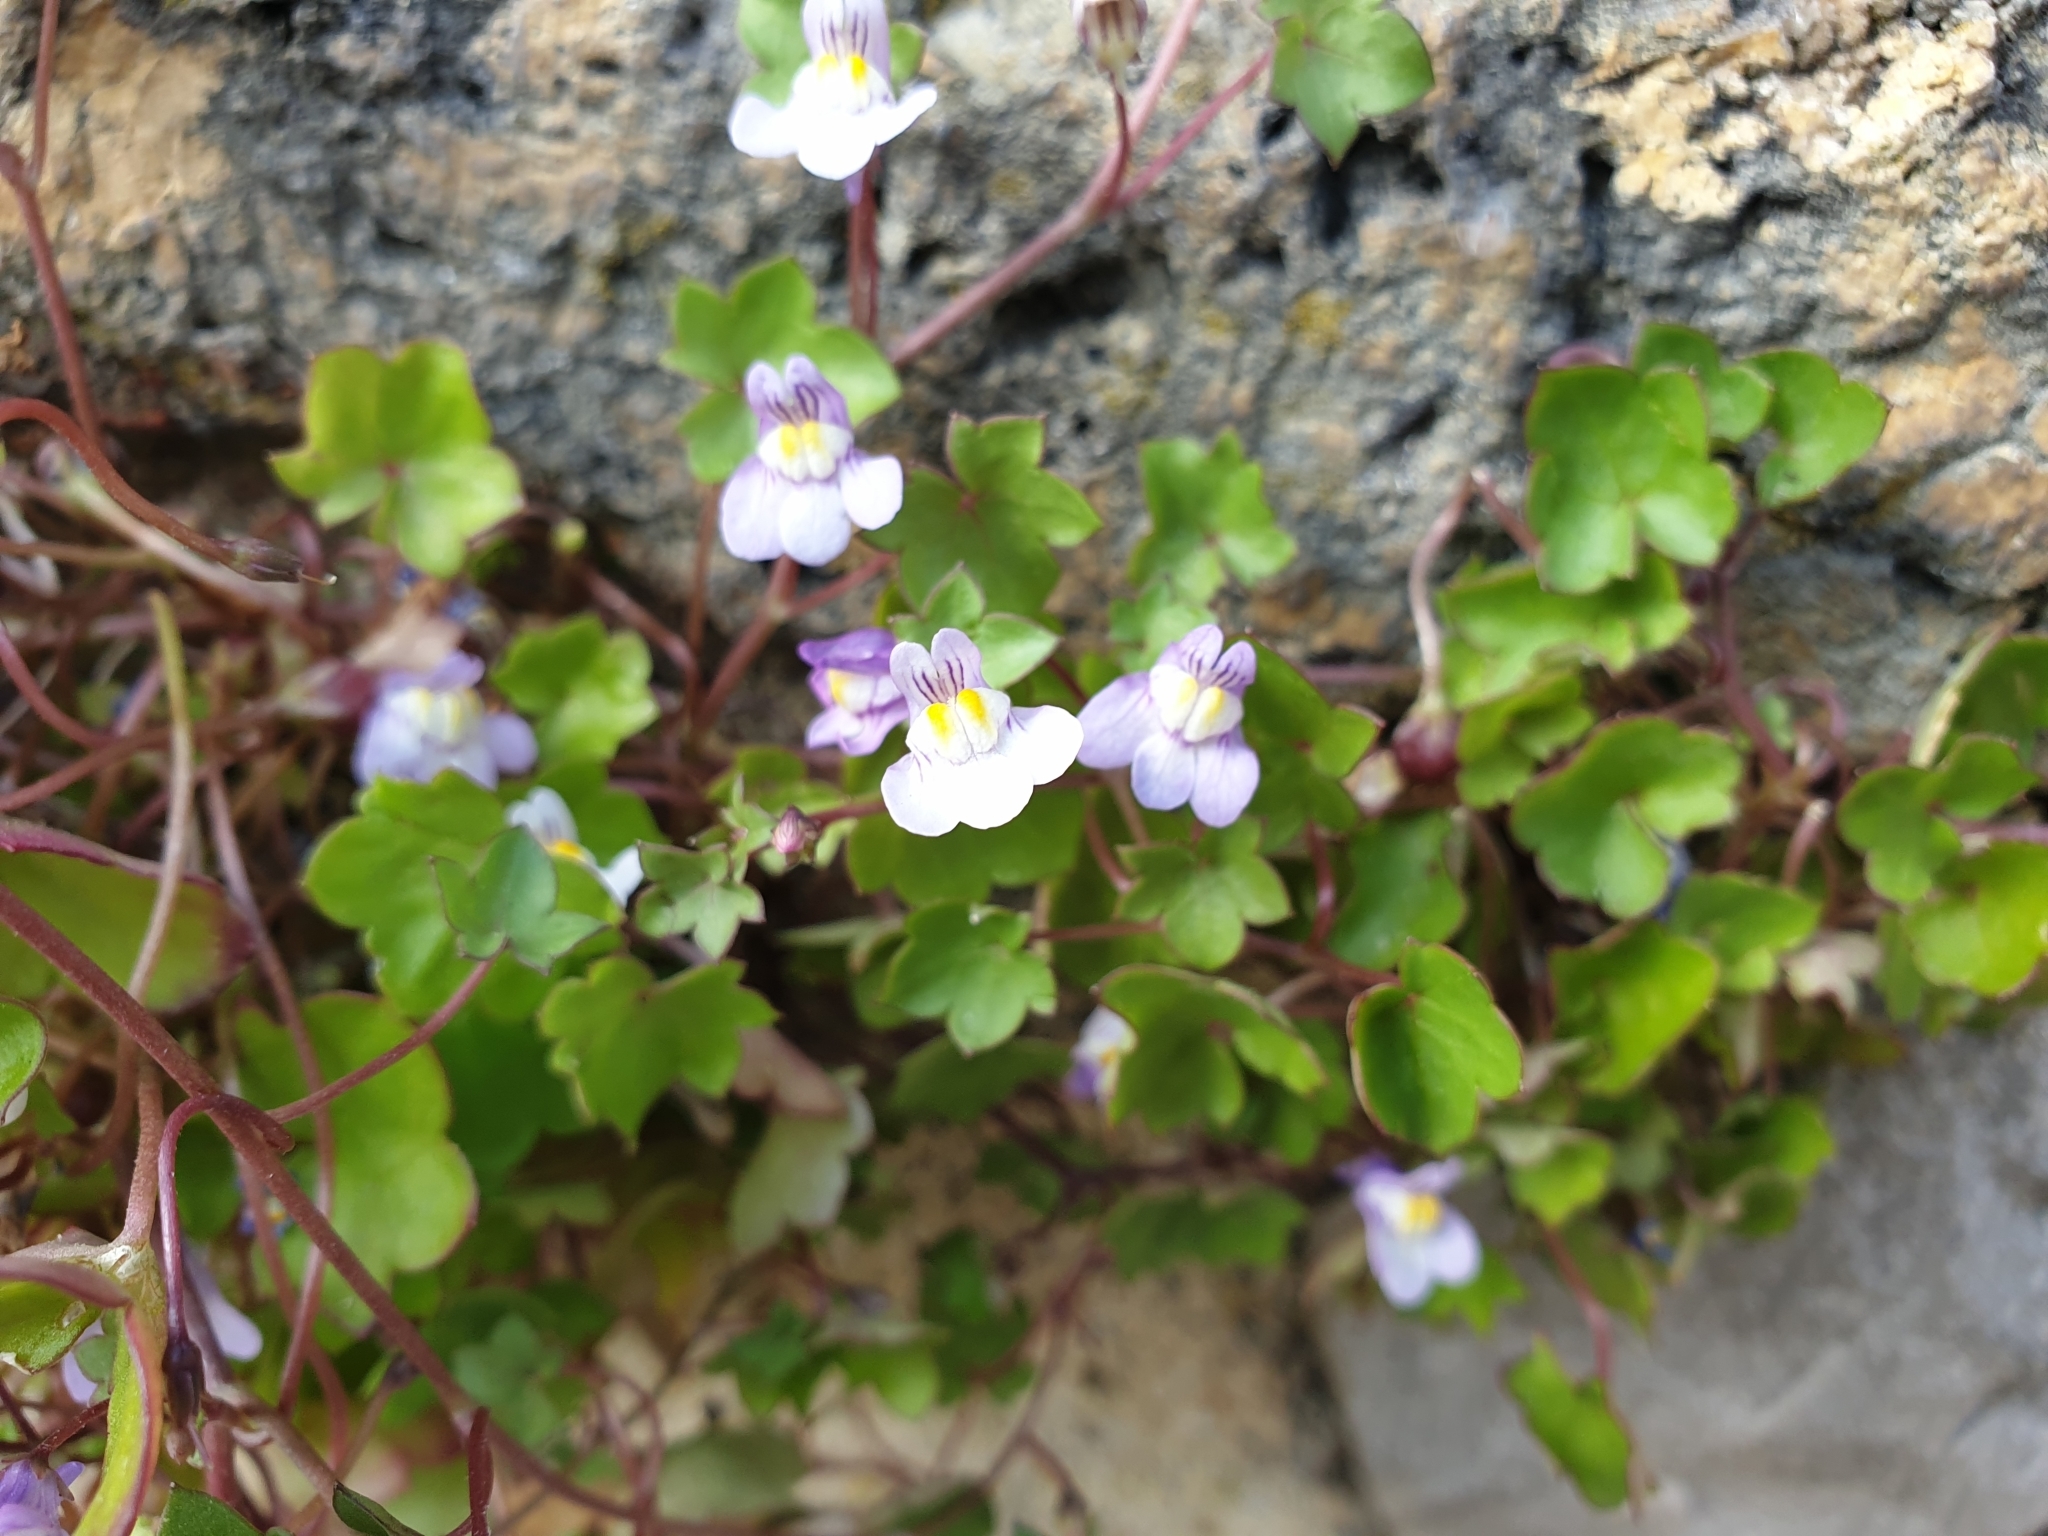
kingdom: Plantae
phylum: Tracheophyta
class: Magnoliopsida
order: Lamiales
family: Plantaginaceae
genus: Cymbalaria
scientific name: Cymbalaria muralis
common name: Ivy-leaved toadflax
